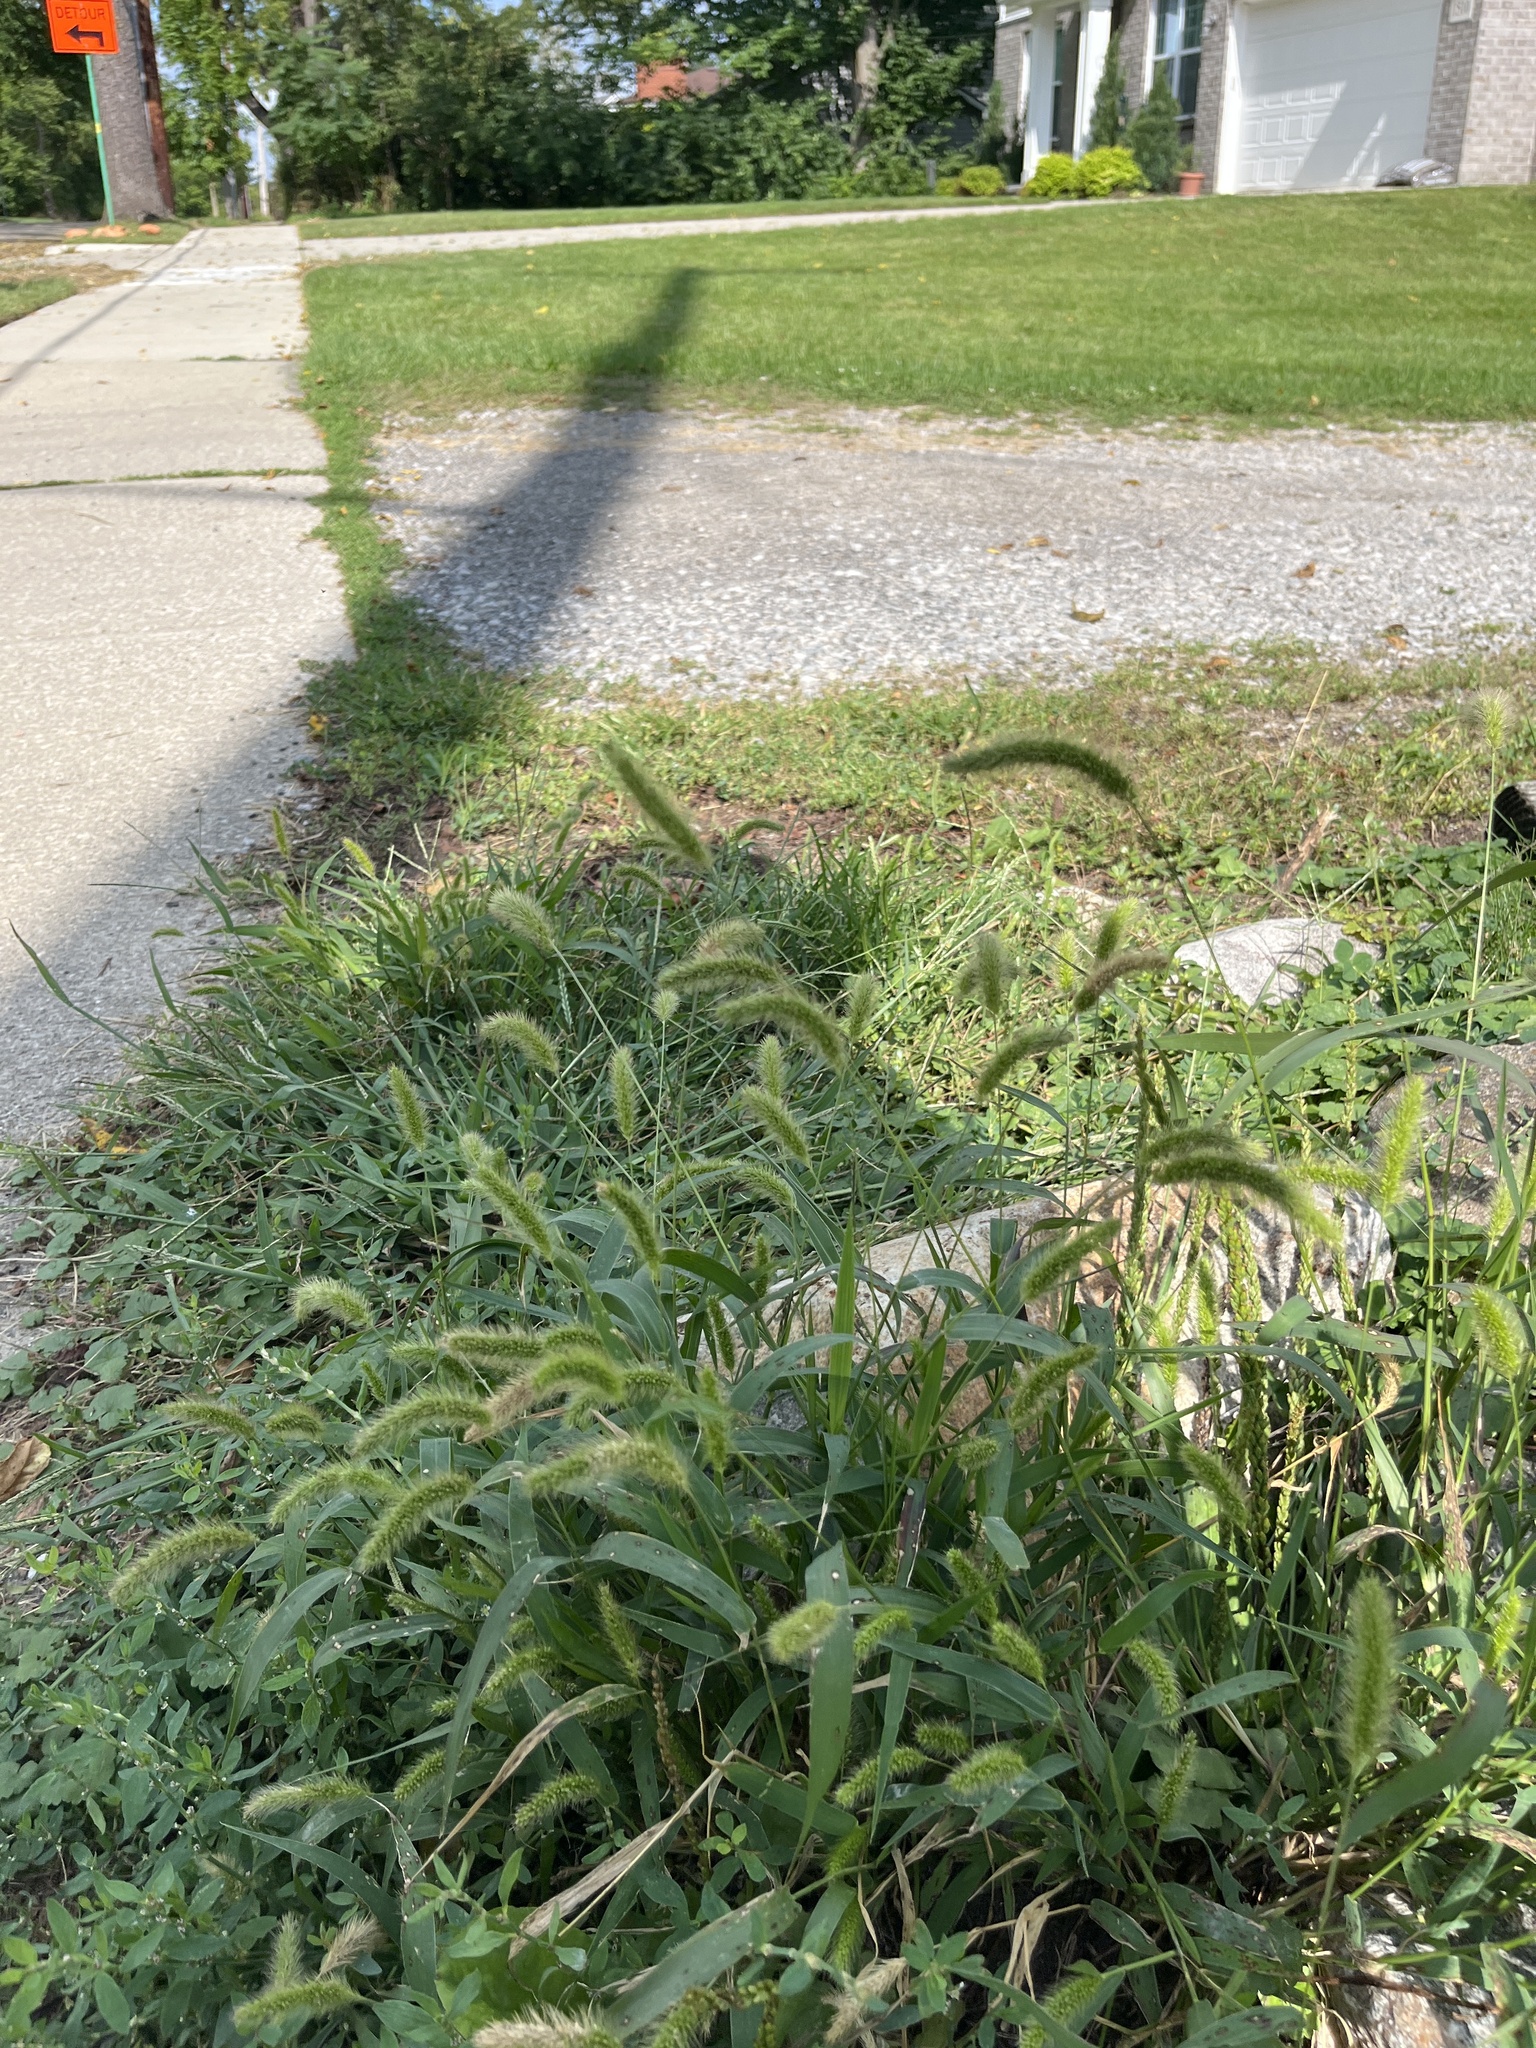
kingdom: Plantae
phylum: Tracheophyta
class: Liliopsida
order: Poales
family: Poaceae
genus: Setaria
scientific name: Setaria viridis
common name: Green bristlegrass
